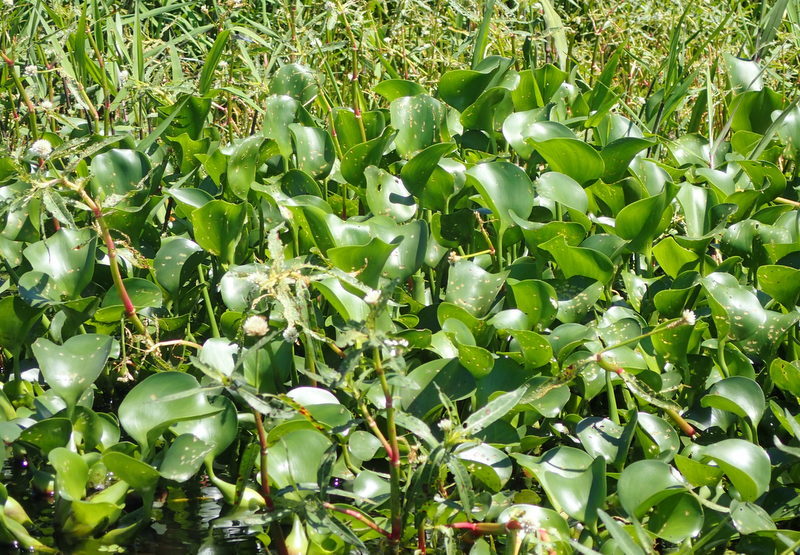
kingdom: Plantae
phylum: Tracheophyta
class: Liliopsida
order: Commelinales
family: Pontederiaceae
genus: Pontederia
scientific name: Pontederia crassipes
